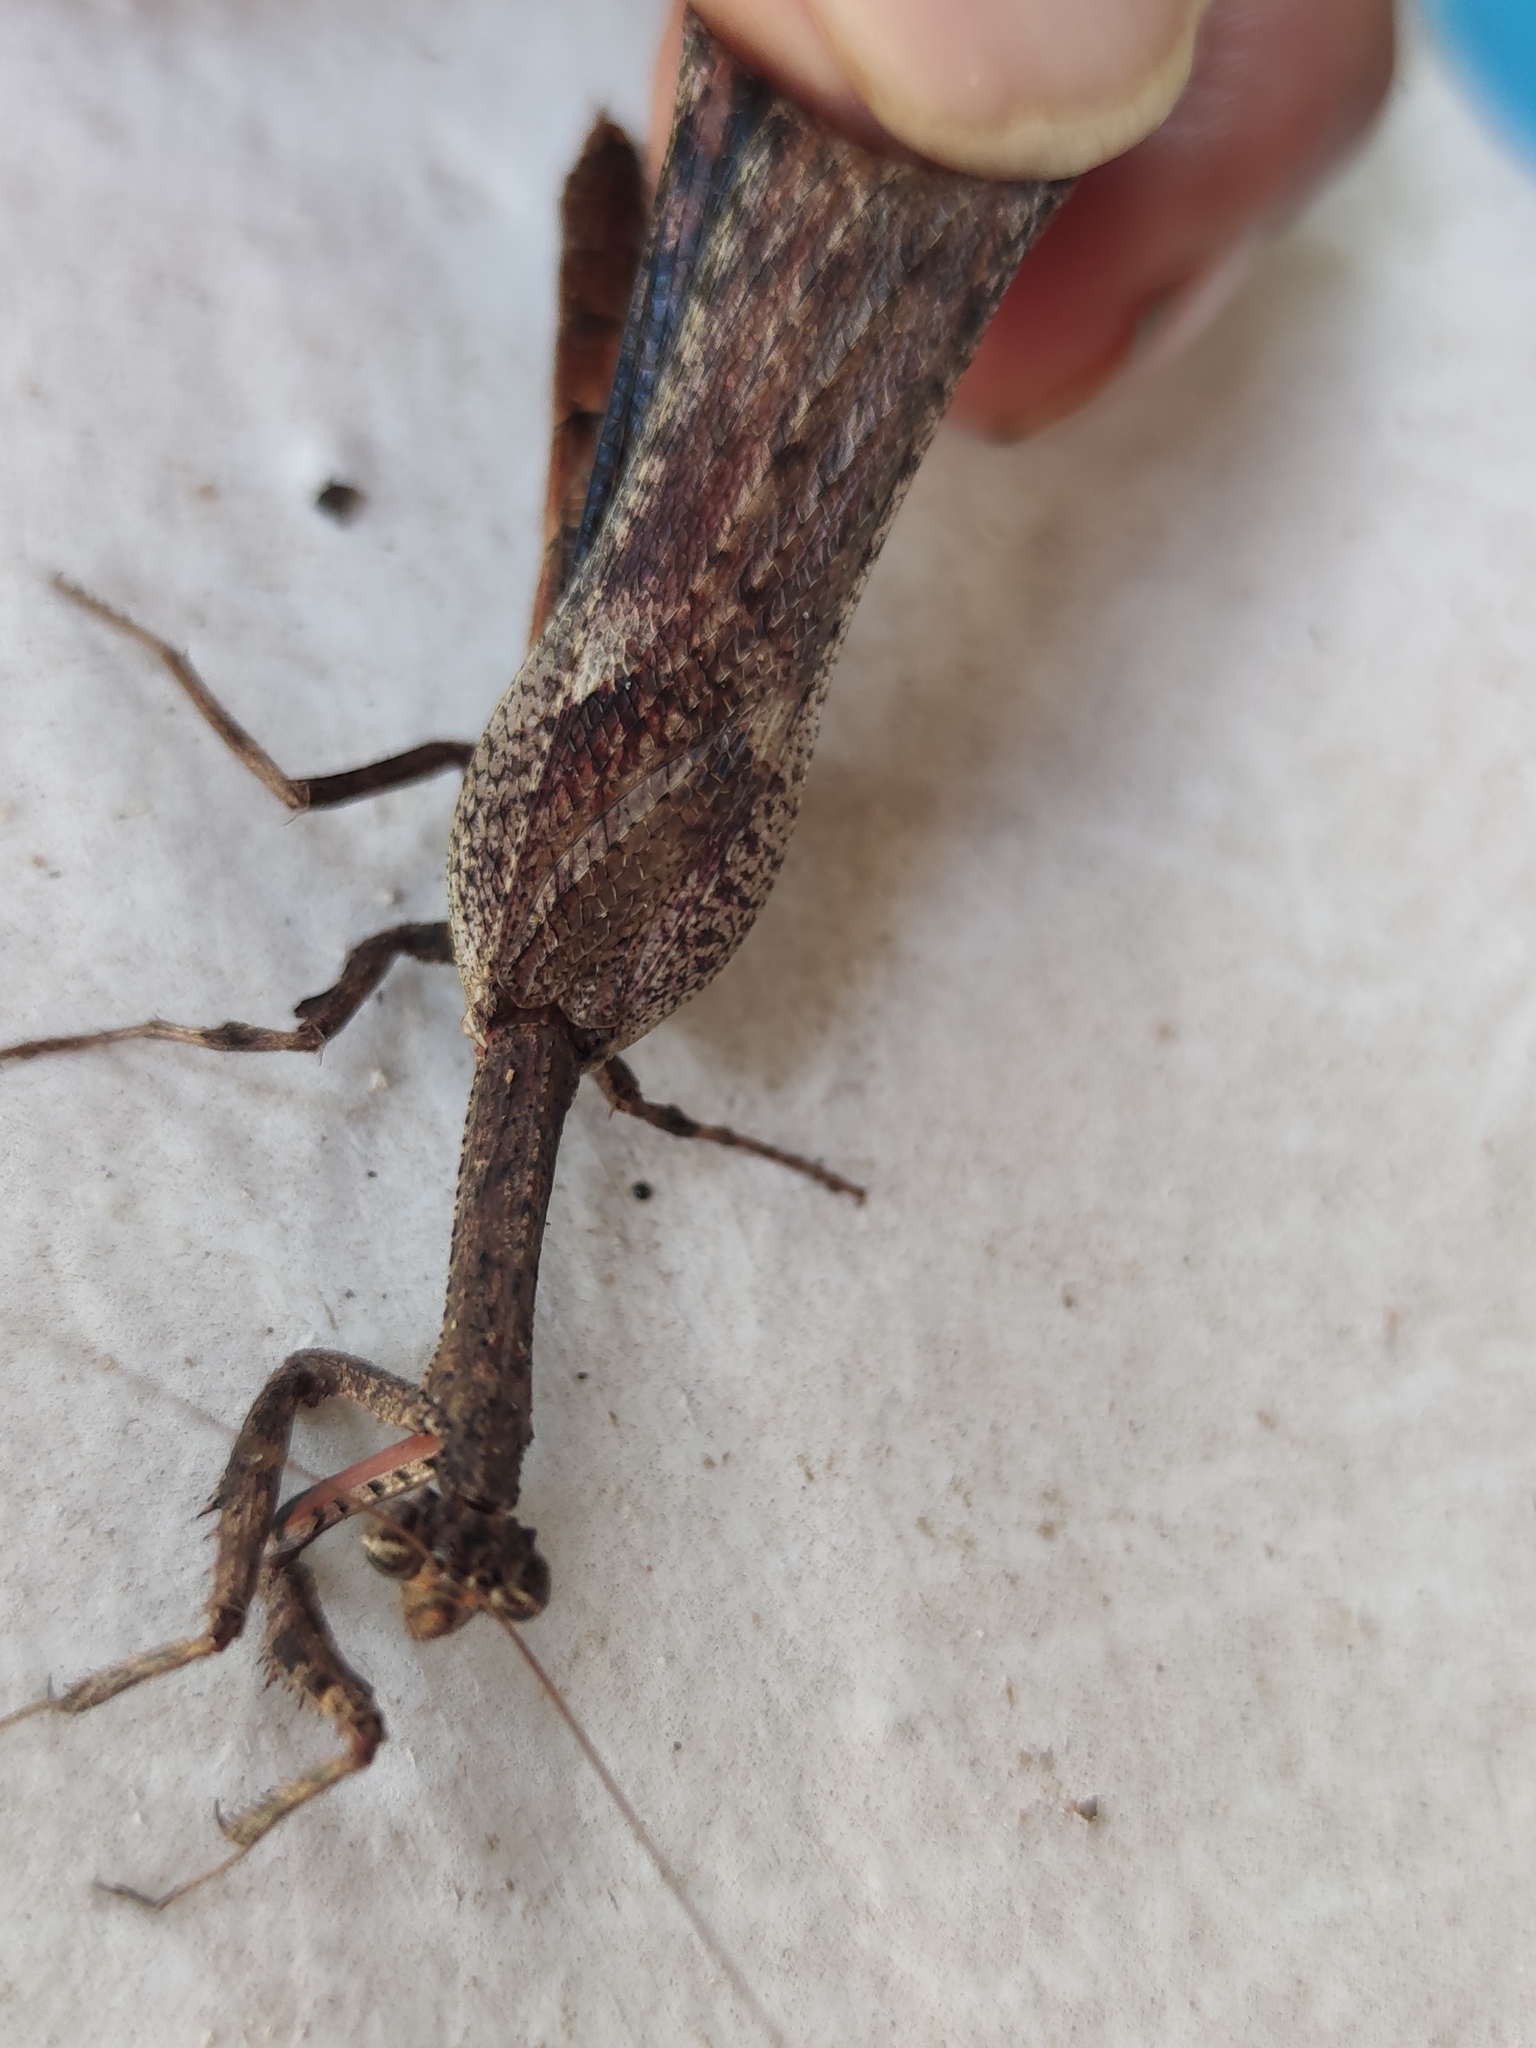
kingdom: Animalia
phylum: Arthropoda
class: Insecta
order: Mantodea
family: Deroplatyidae
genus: Popa
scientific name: Popa spurca
